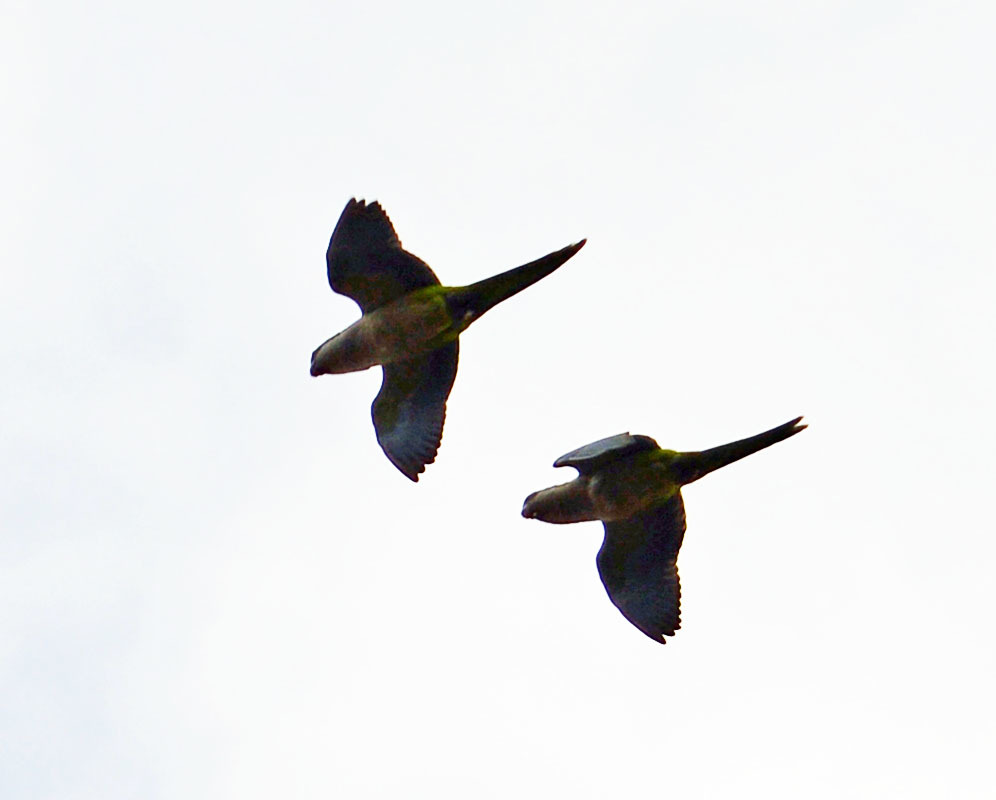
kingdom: Animalia
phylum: Chordata
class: Aves
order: Psittaciformes
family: Psittacidae
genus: Myiopsitta
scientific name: Myiopsitta monachus
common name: Monk parakeet
